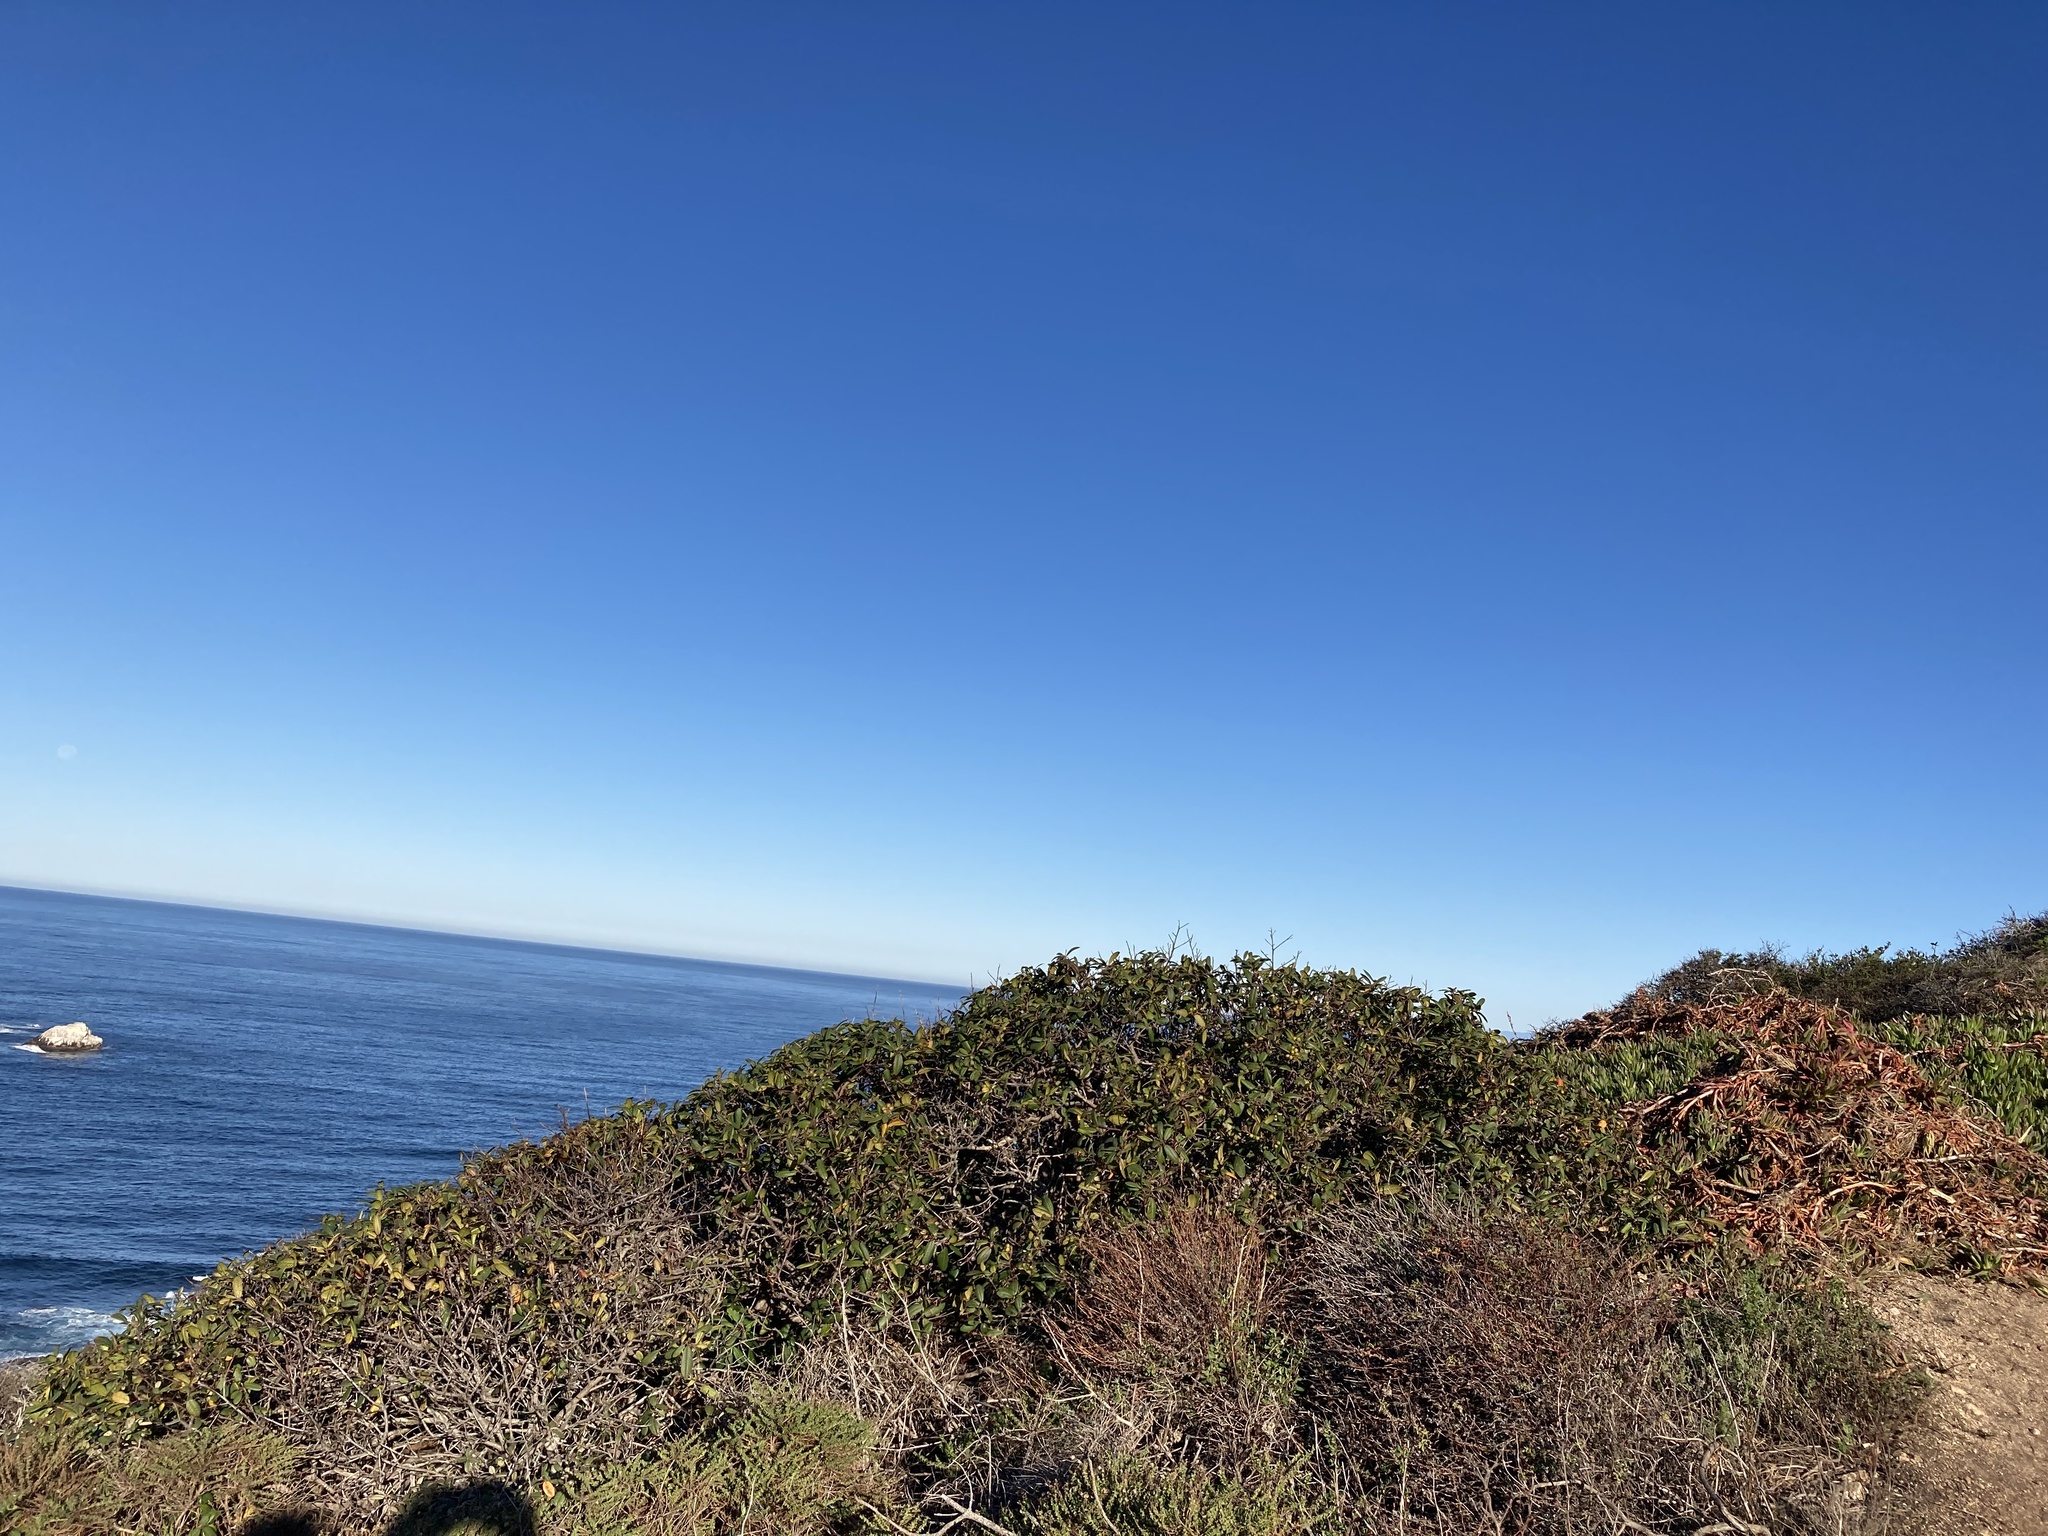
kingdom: Plantae
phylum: Tracheophyta
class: Magnoliopsida
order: Rosales
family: Rhamnaceae
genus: Frangula
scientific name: Frangula californica
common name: California buckthorn
